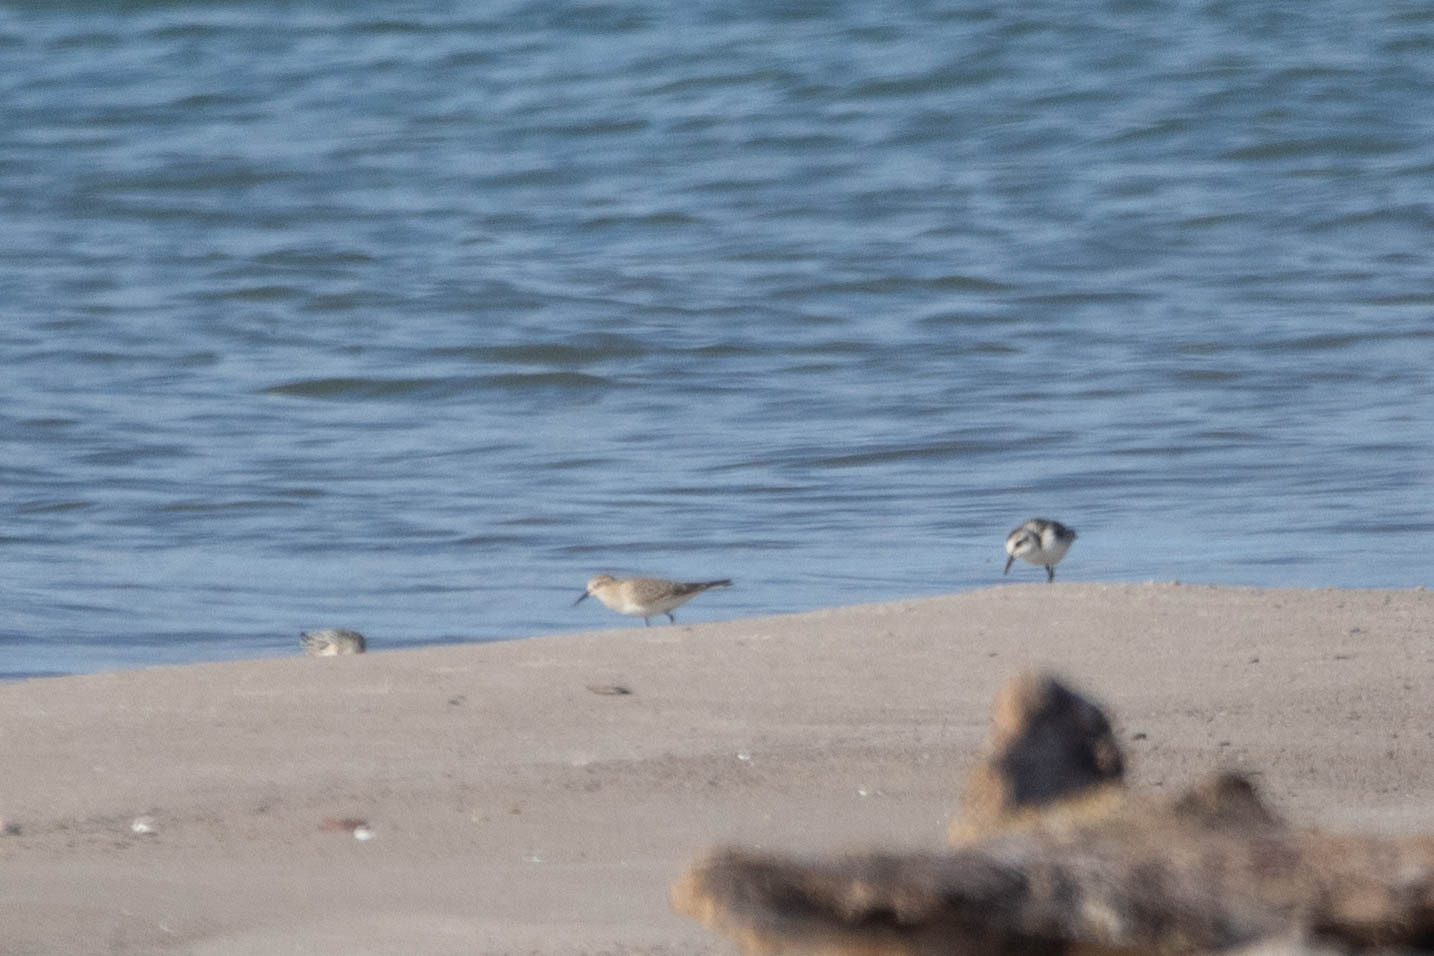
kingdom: Animalia
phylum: Chordata
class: Aves
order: Charadriiformes
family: Scolopacidae
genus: Calidris
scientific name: Calidris bairdii
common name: Baird's sandpiper
